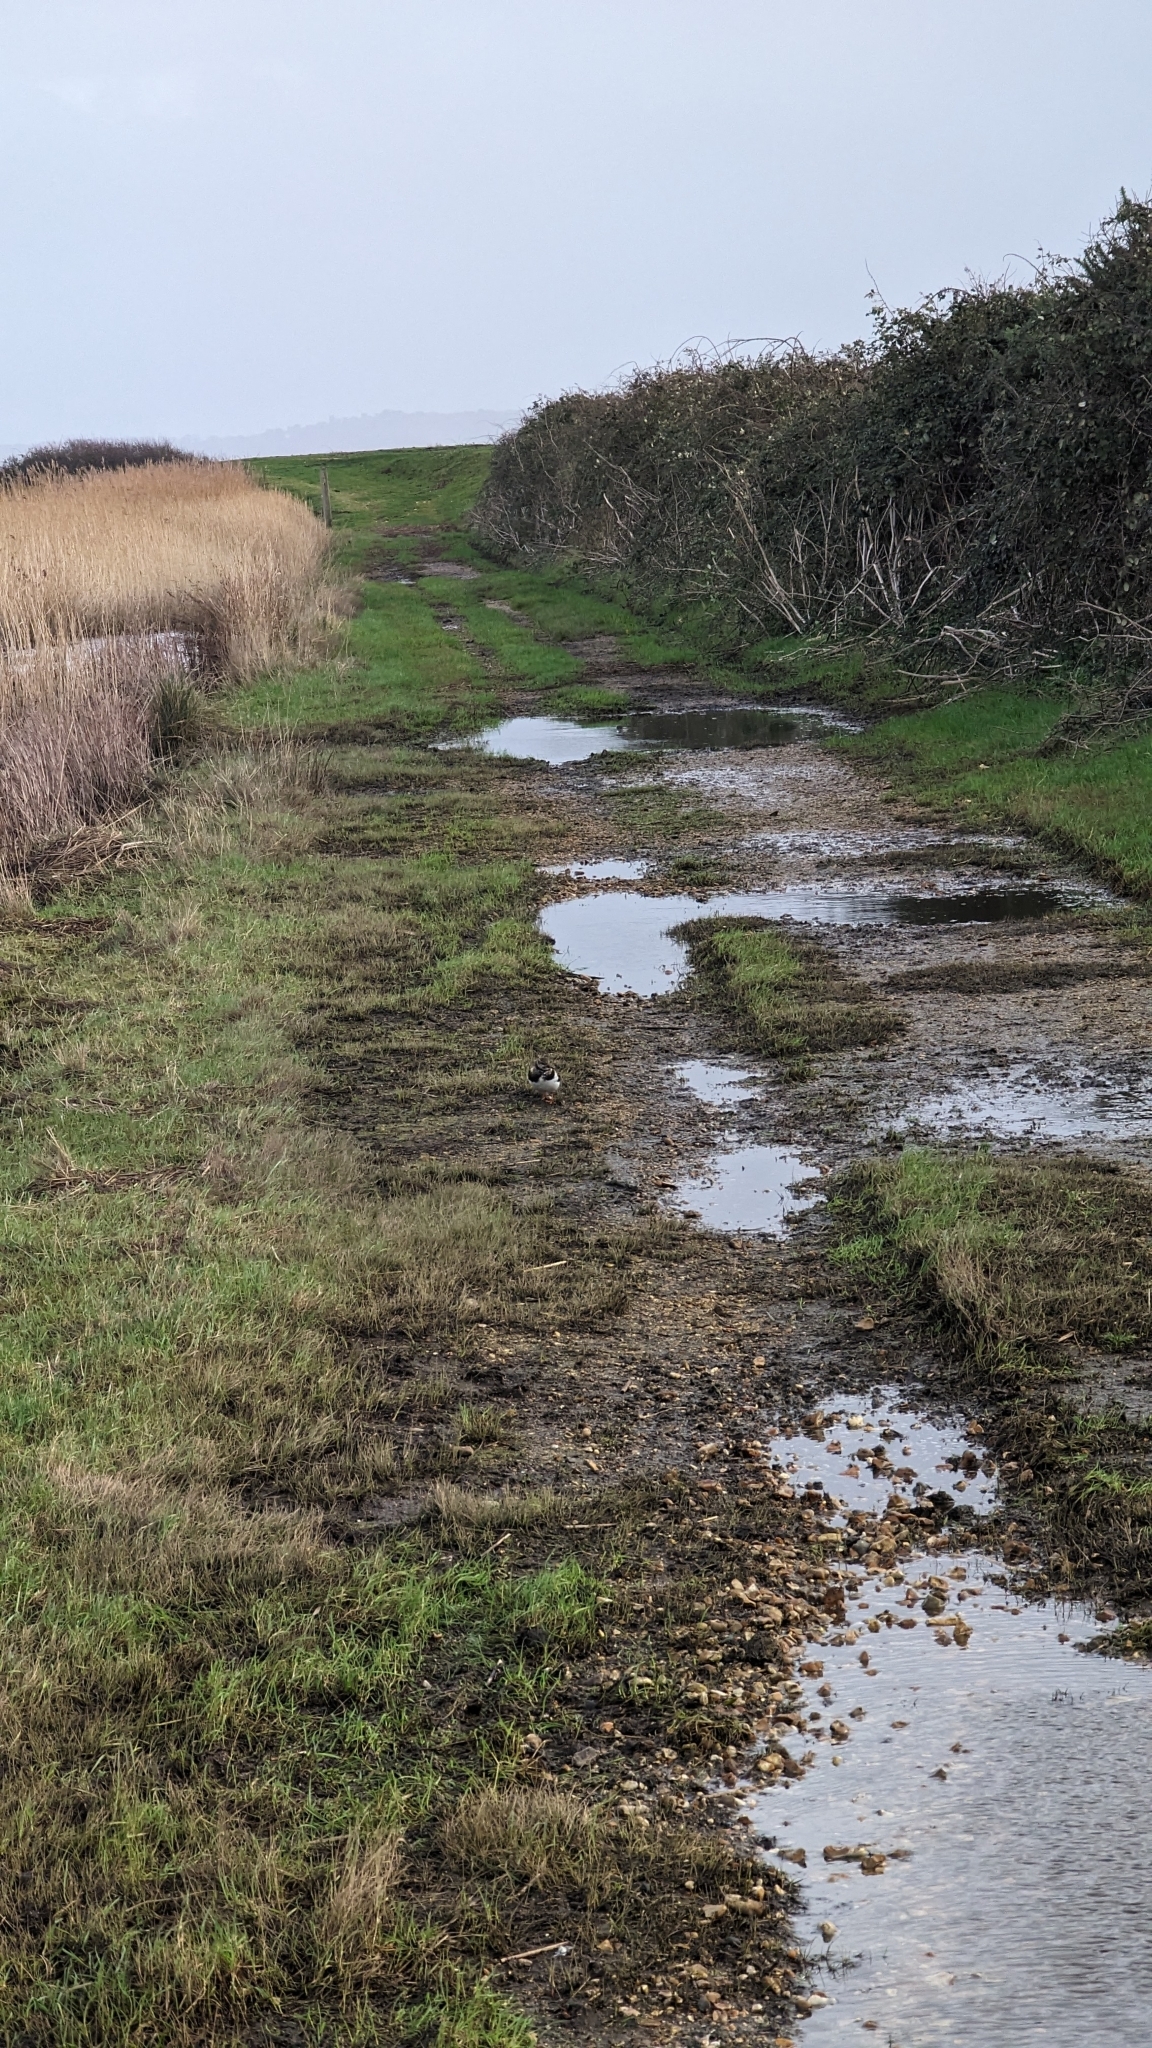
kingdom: Animalia
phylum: Chordata
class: Aves
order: Charadriiformes
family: Scolopacidae
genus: Arenaria
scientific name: Arenaria interpres
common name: Ruddy turnstone
